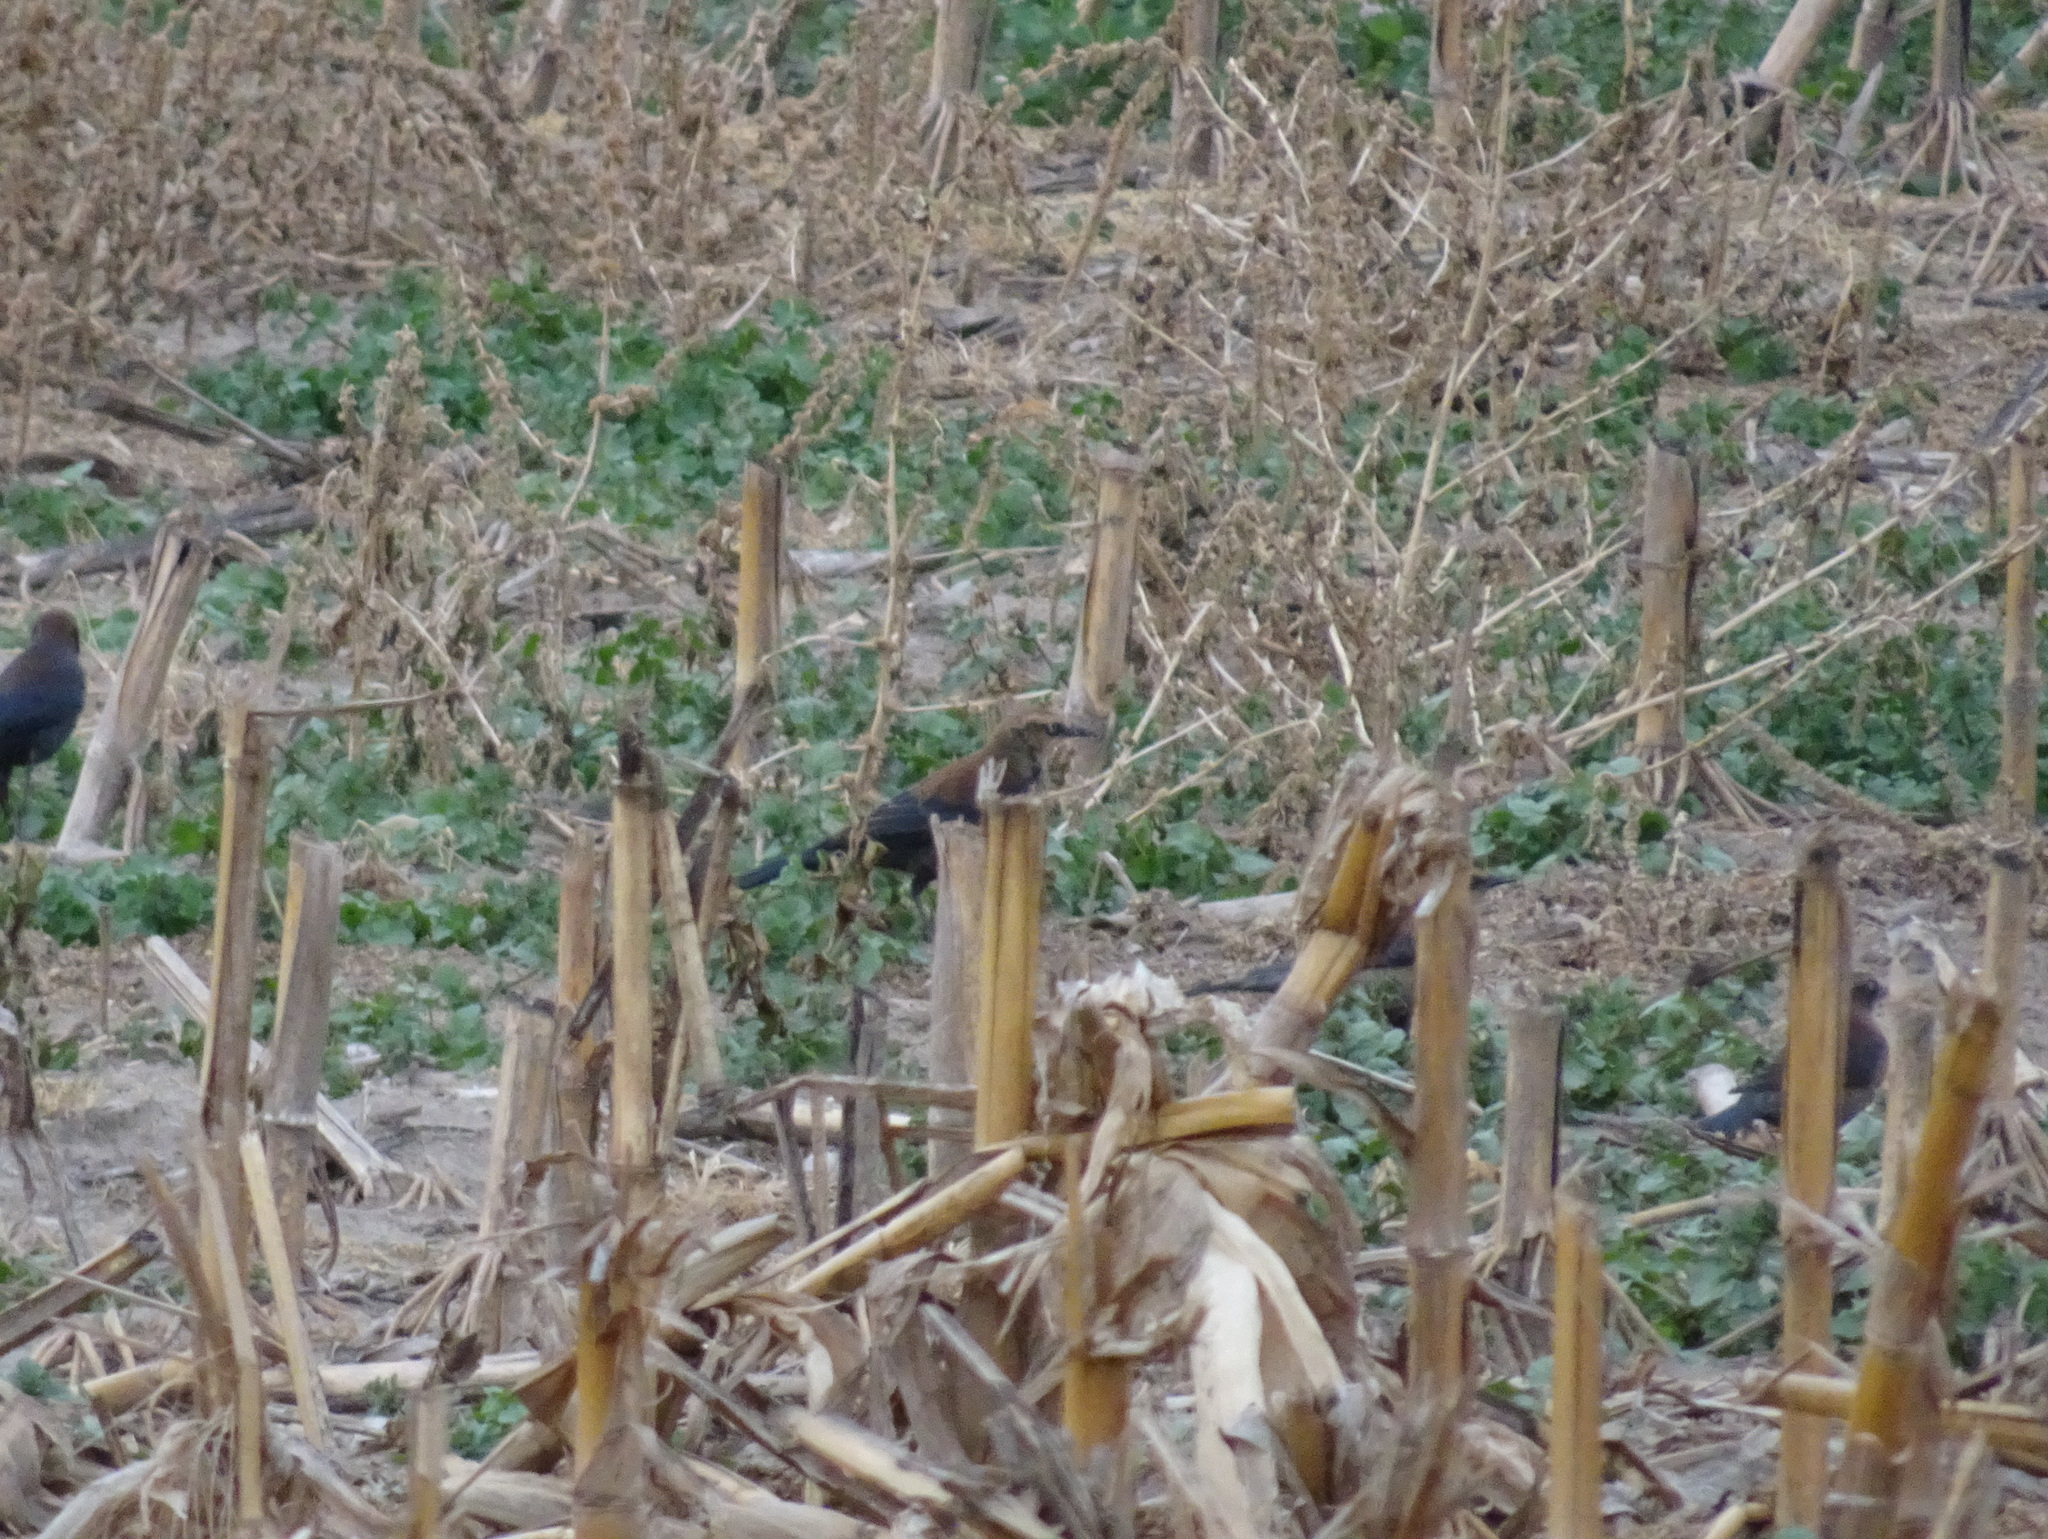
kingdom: Animalia
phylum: Chordata
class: Aves
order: Passeriformes
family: Icteridae
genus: Euphagus
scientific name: Euphagus carolinus
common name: Rusty blackbird
